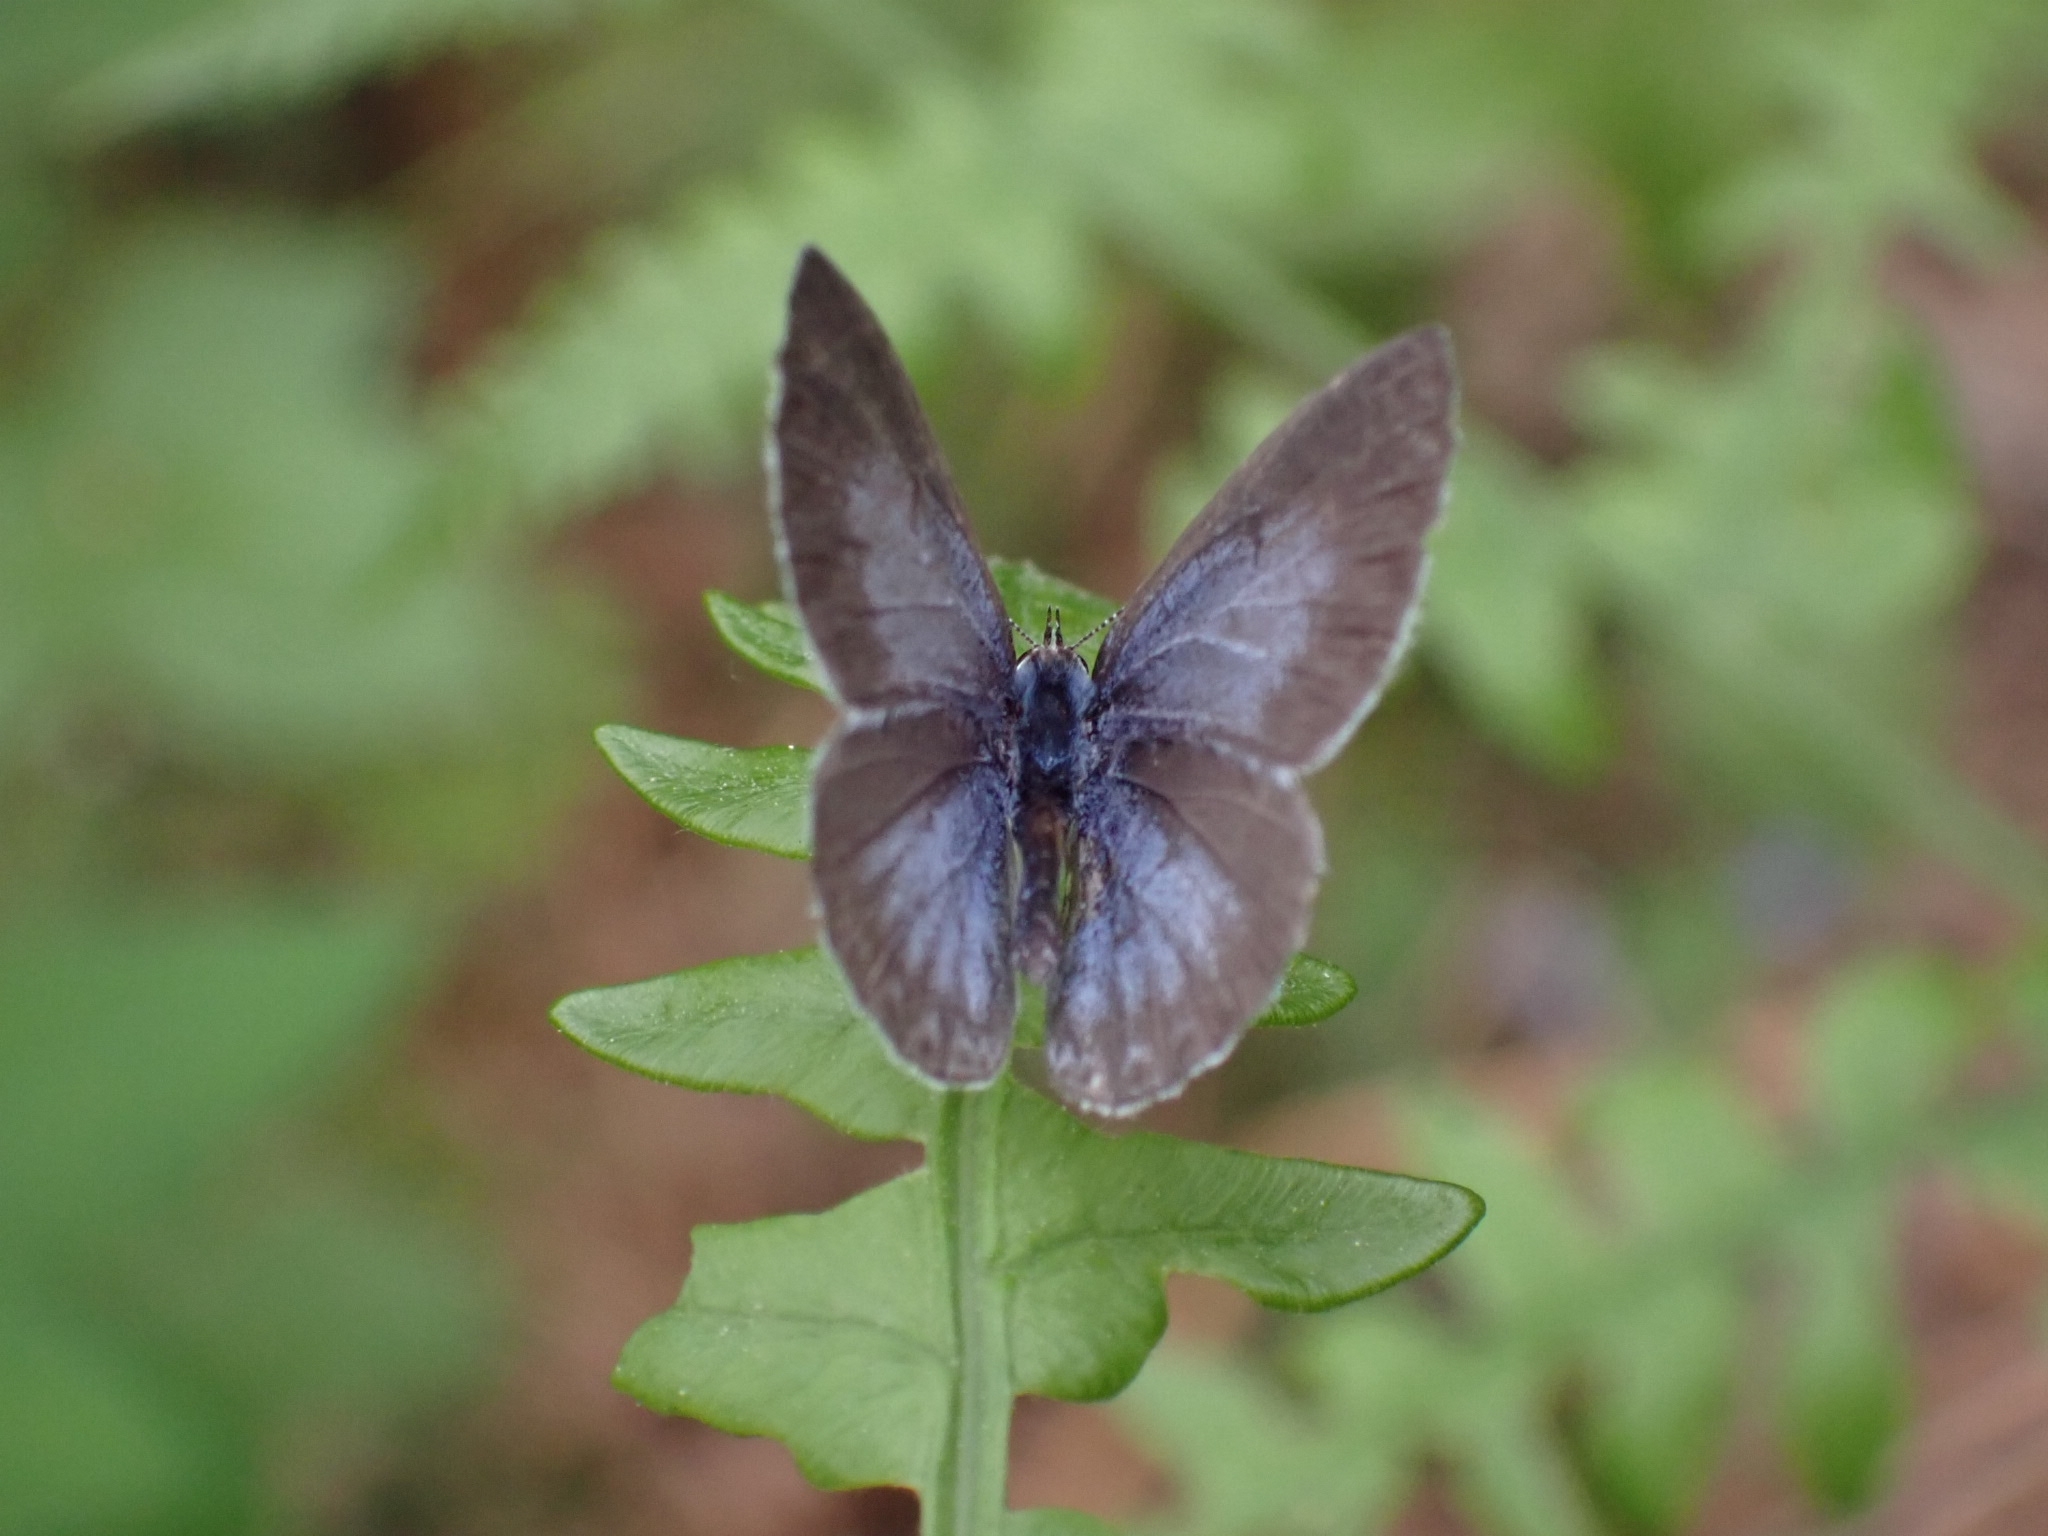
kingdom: Animalia
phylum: Arthropoda
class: Insecta
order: Lepidoptera
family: Lycaenidae
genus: Elkalyce
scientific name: Elkalyce argiades
